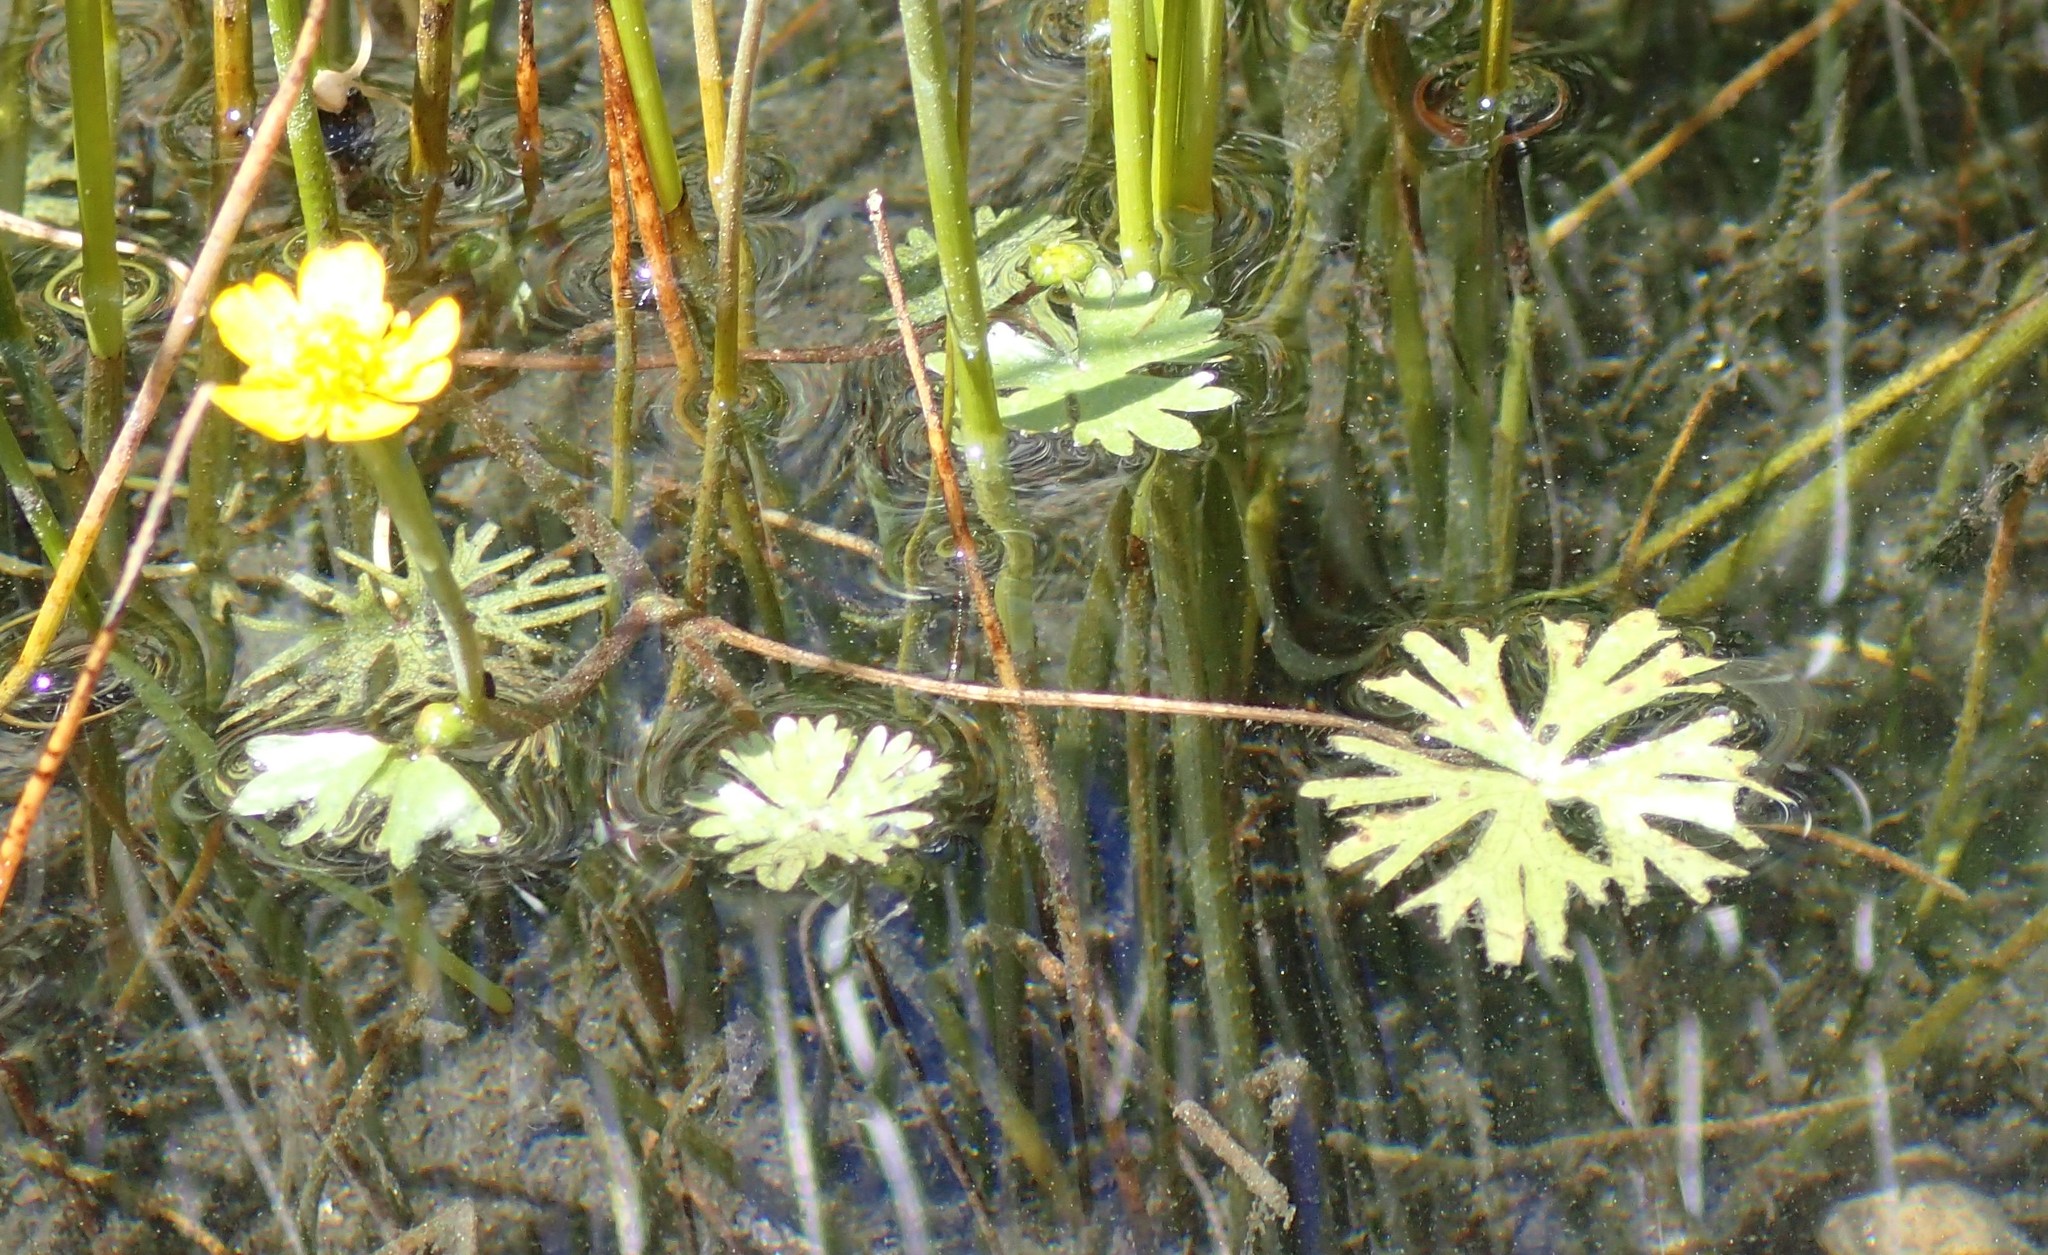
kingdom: Plantae
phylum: Tracheophyta
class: Magnoliopsida
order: Ranunculales
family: Ranunculaceae
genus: Ranunculus
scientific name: Ranunculus gmelinii
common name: Gmelin's buttercup
